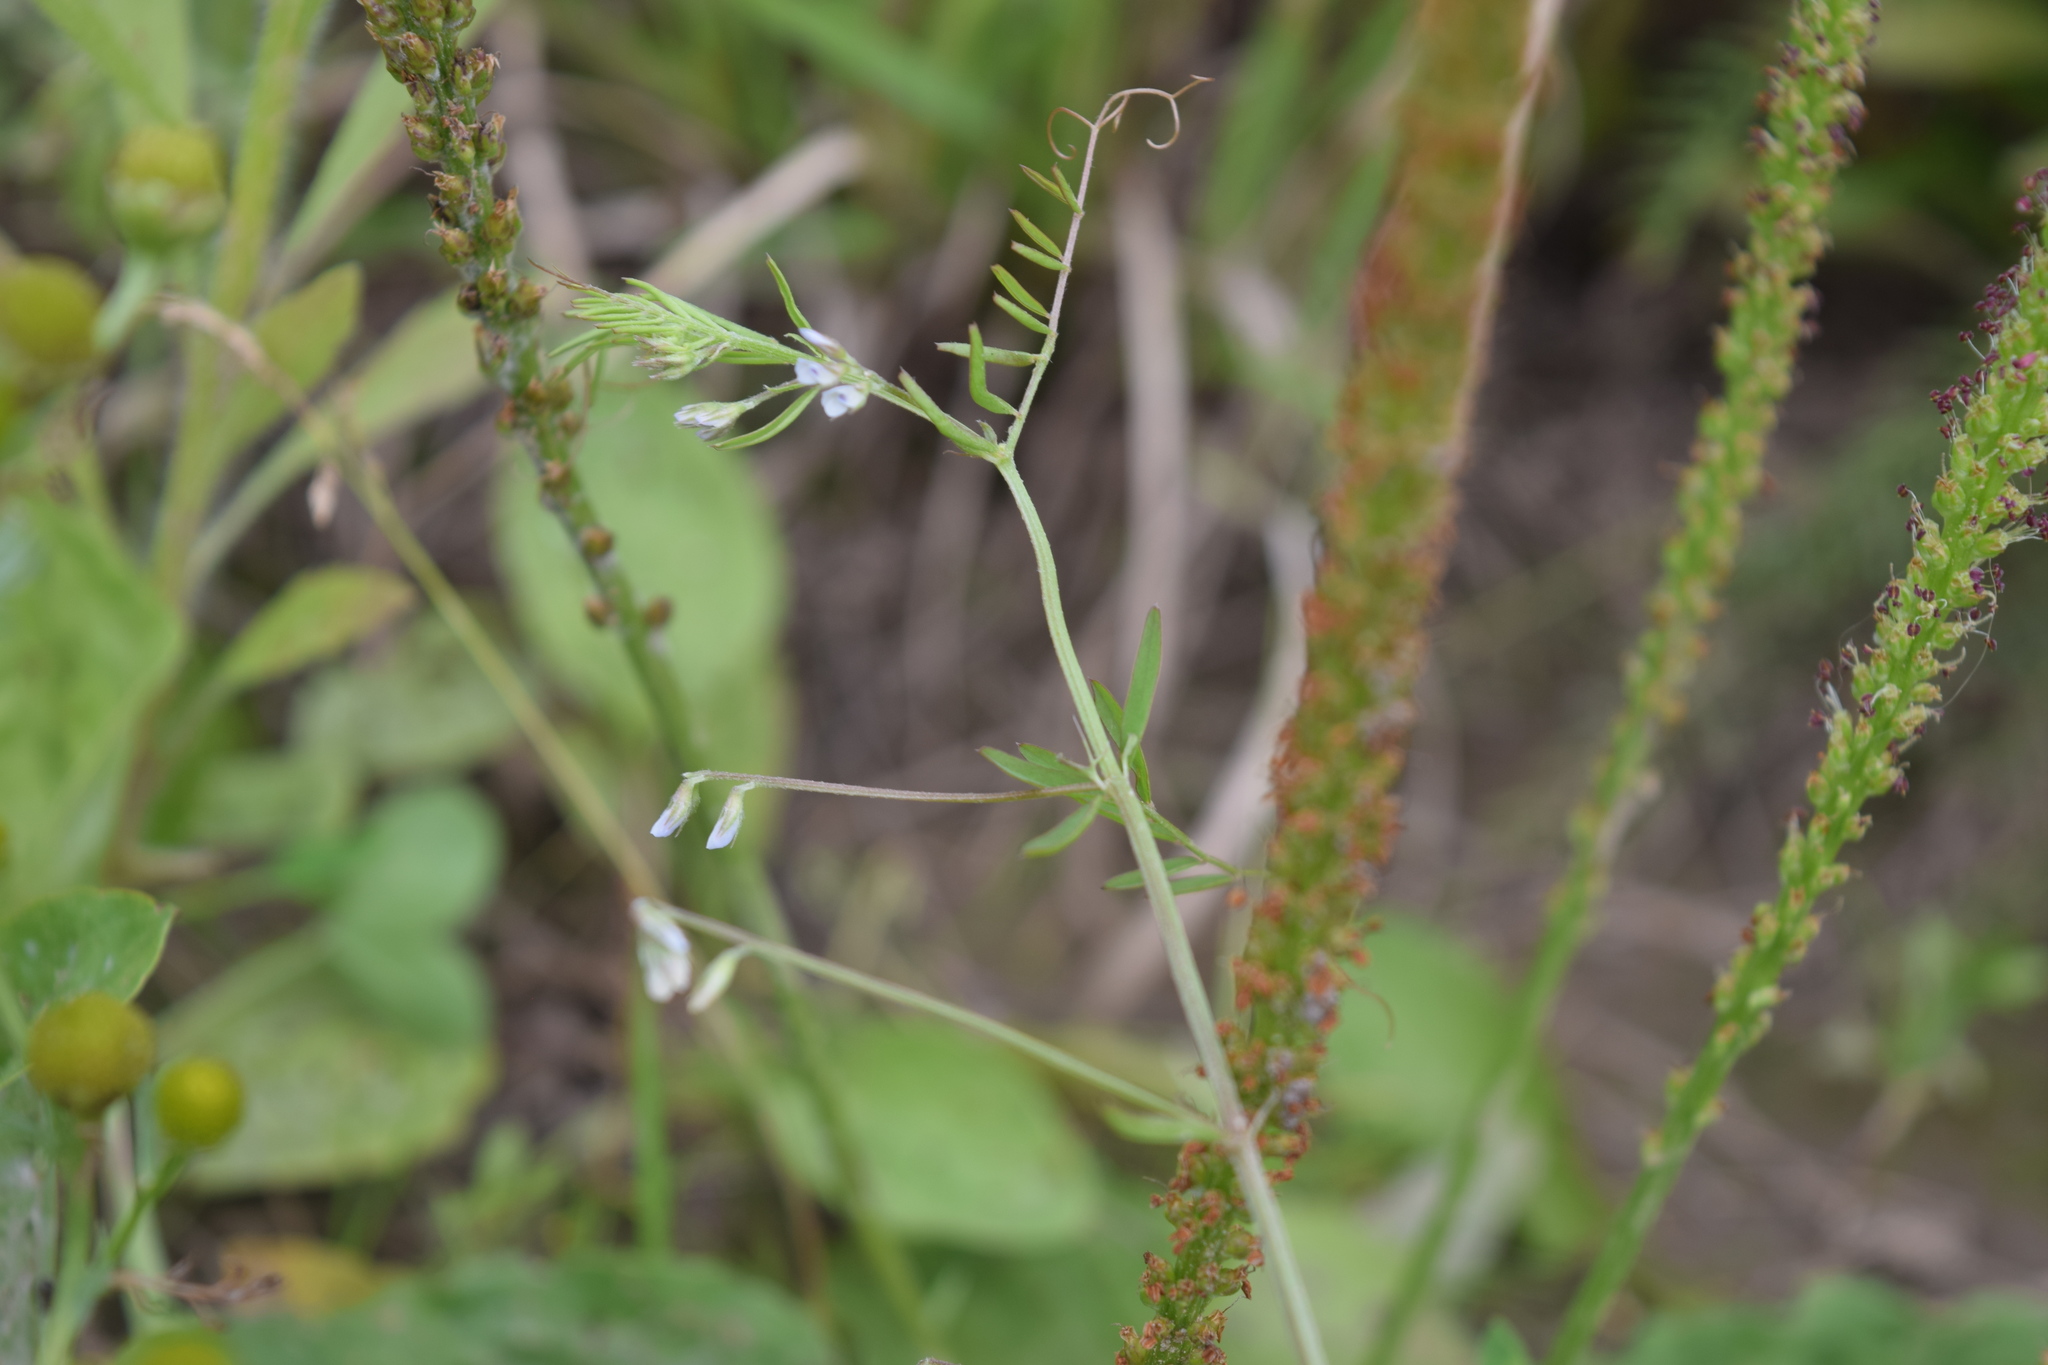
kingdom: Plantae
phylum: Tracheophyta
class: Magnoliopsida
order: Fabales
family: Fabaceae
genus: Vicia
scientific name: Vicia hirsuta
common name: Tiny vetch
